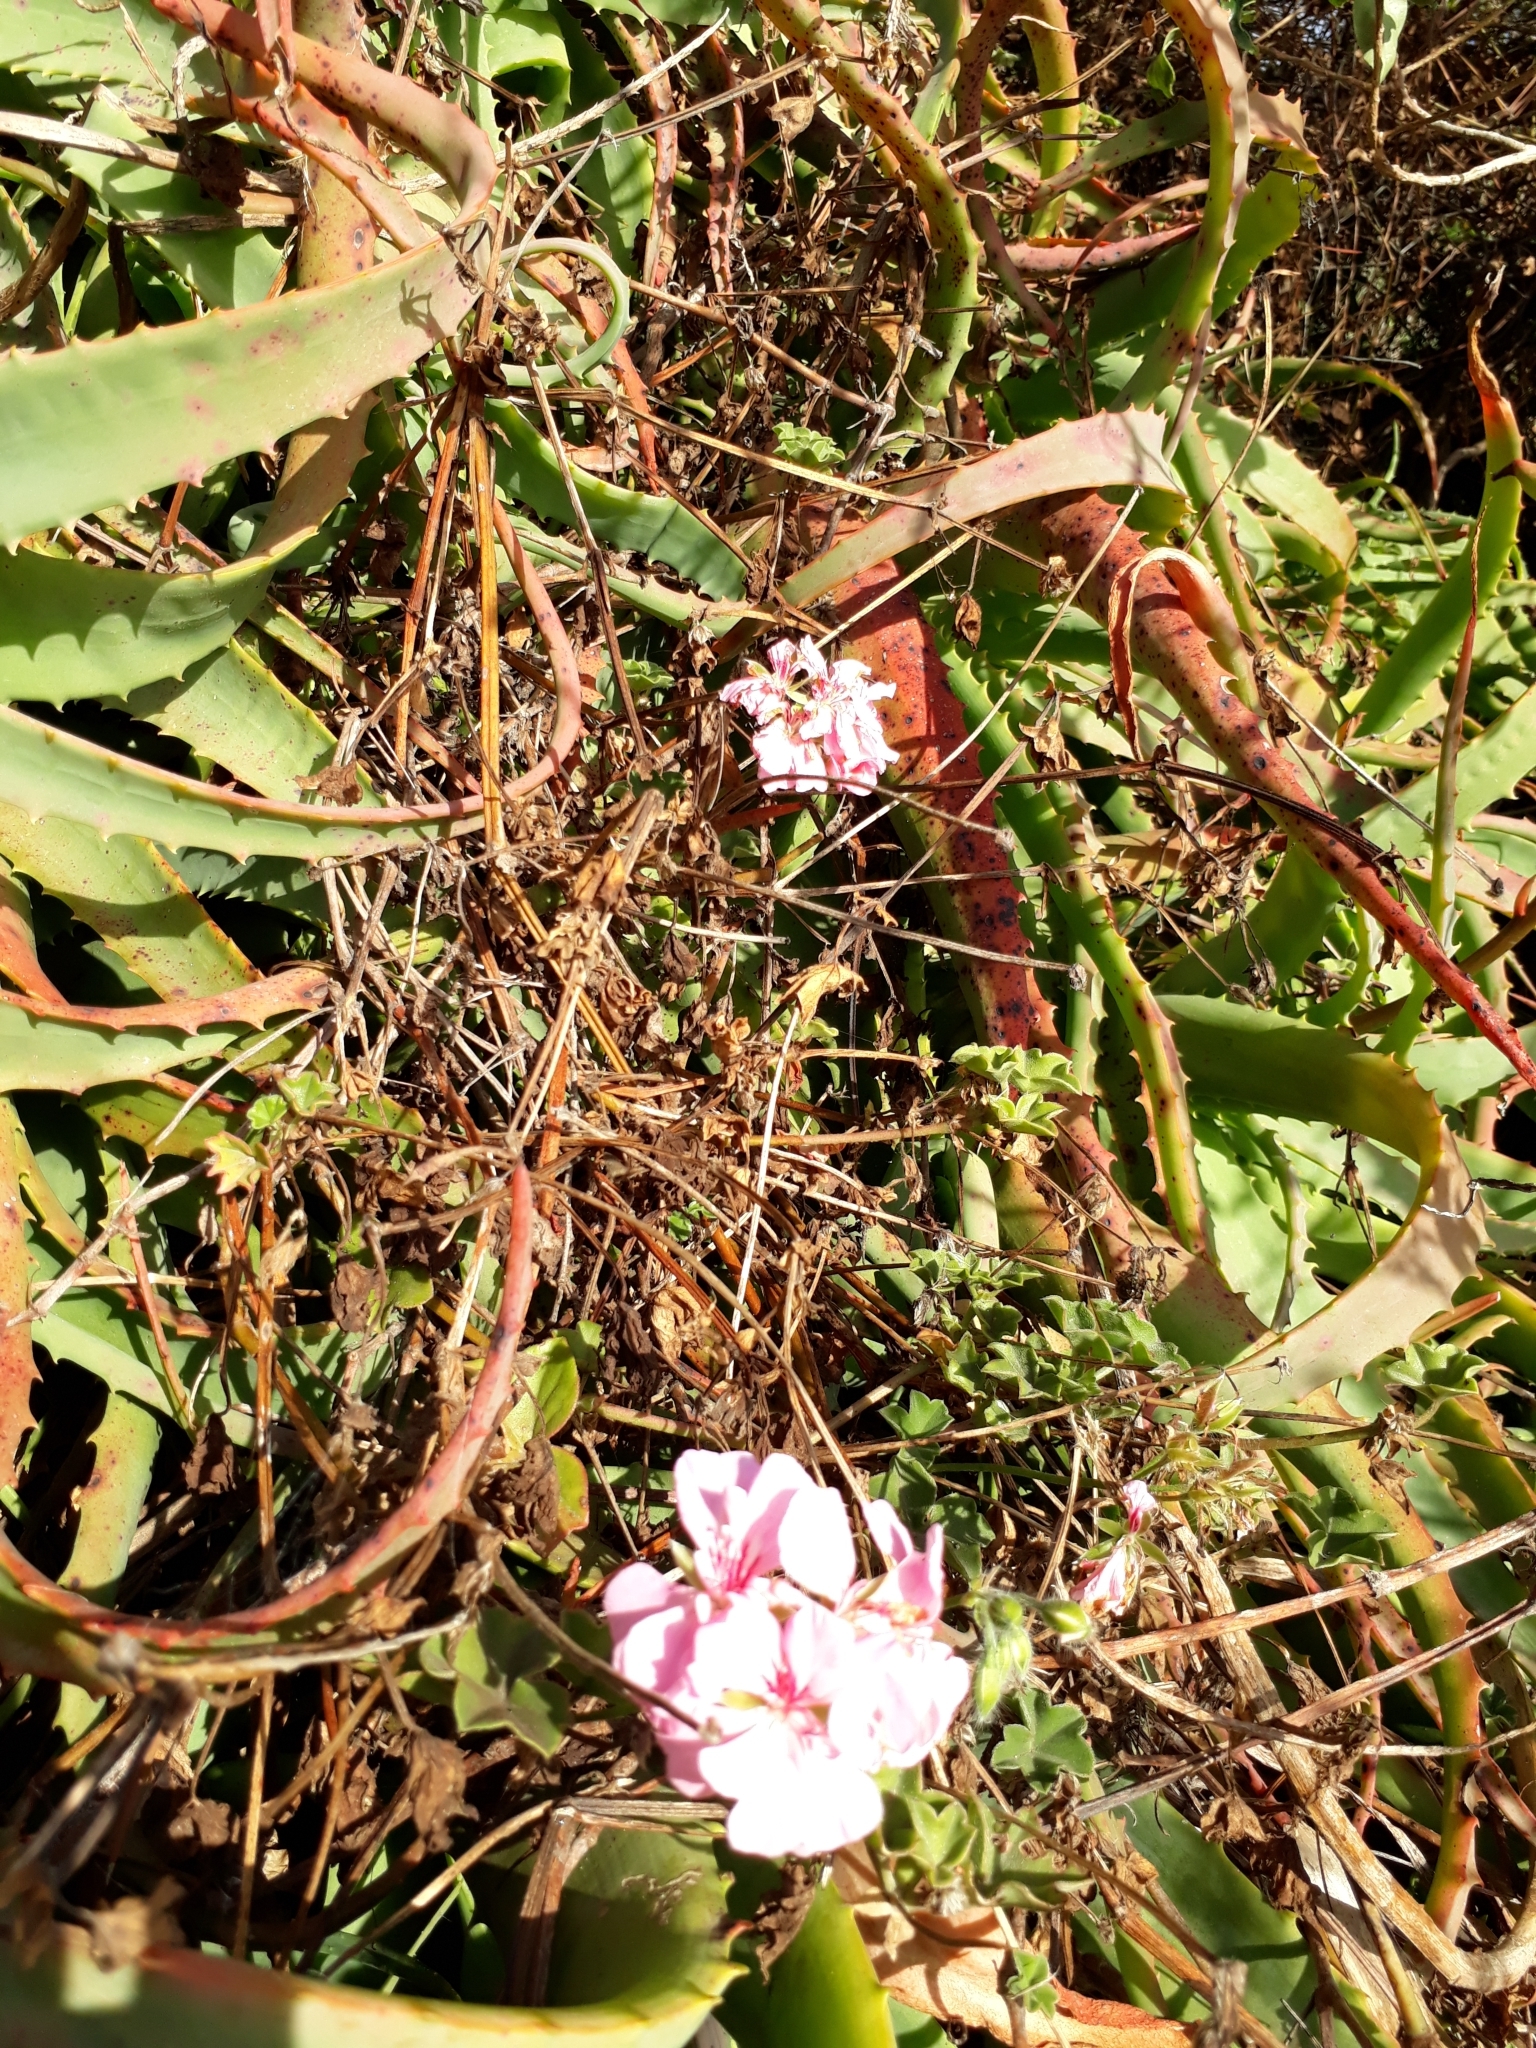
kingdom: Plantae
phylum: Tracheophyta
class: Magnoliopsida
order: Geraniales
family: Geraniaceae
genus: Pelargonium
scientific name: Pelargonium hybridum
